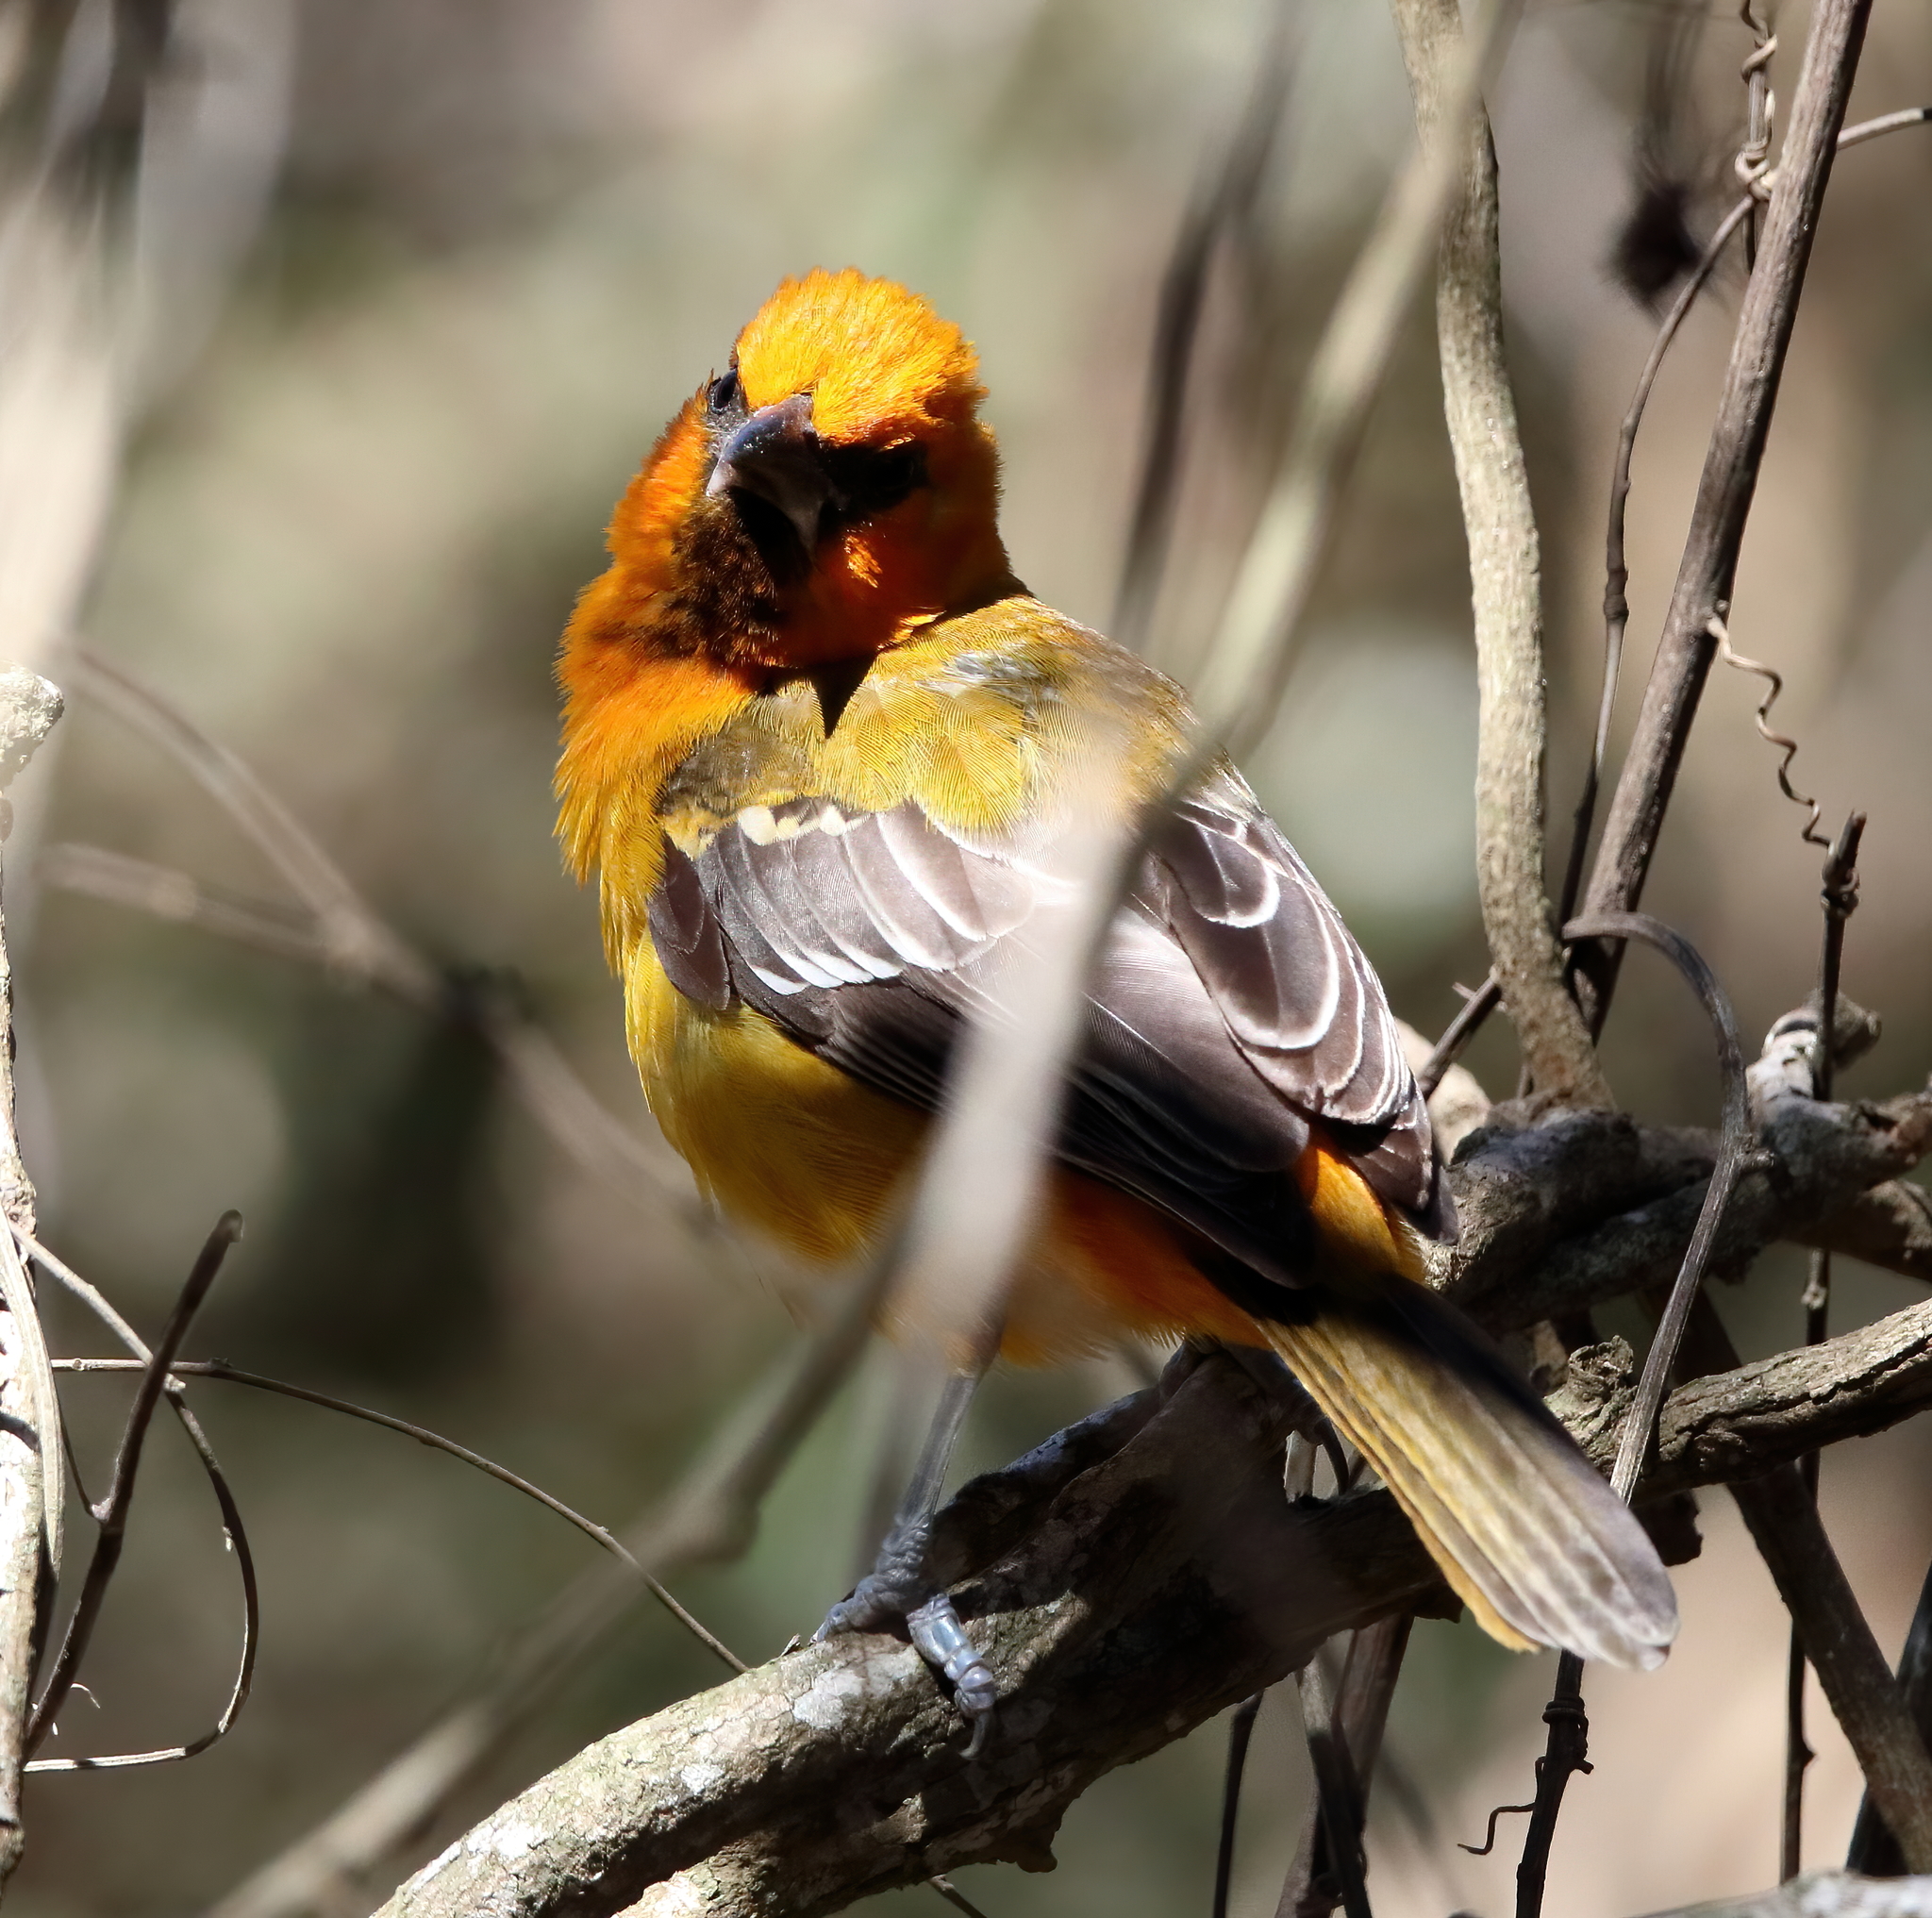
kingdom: Animalia
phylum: Chordata
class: Aves
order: Passeriformes
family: Icteridae
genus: Icterus
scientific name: Icterus gularis
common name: Altamira oriole
